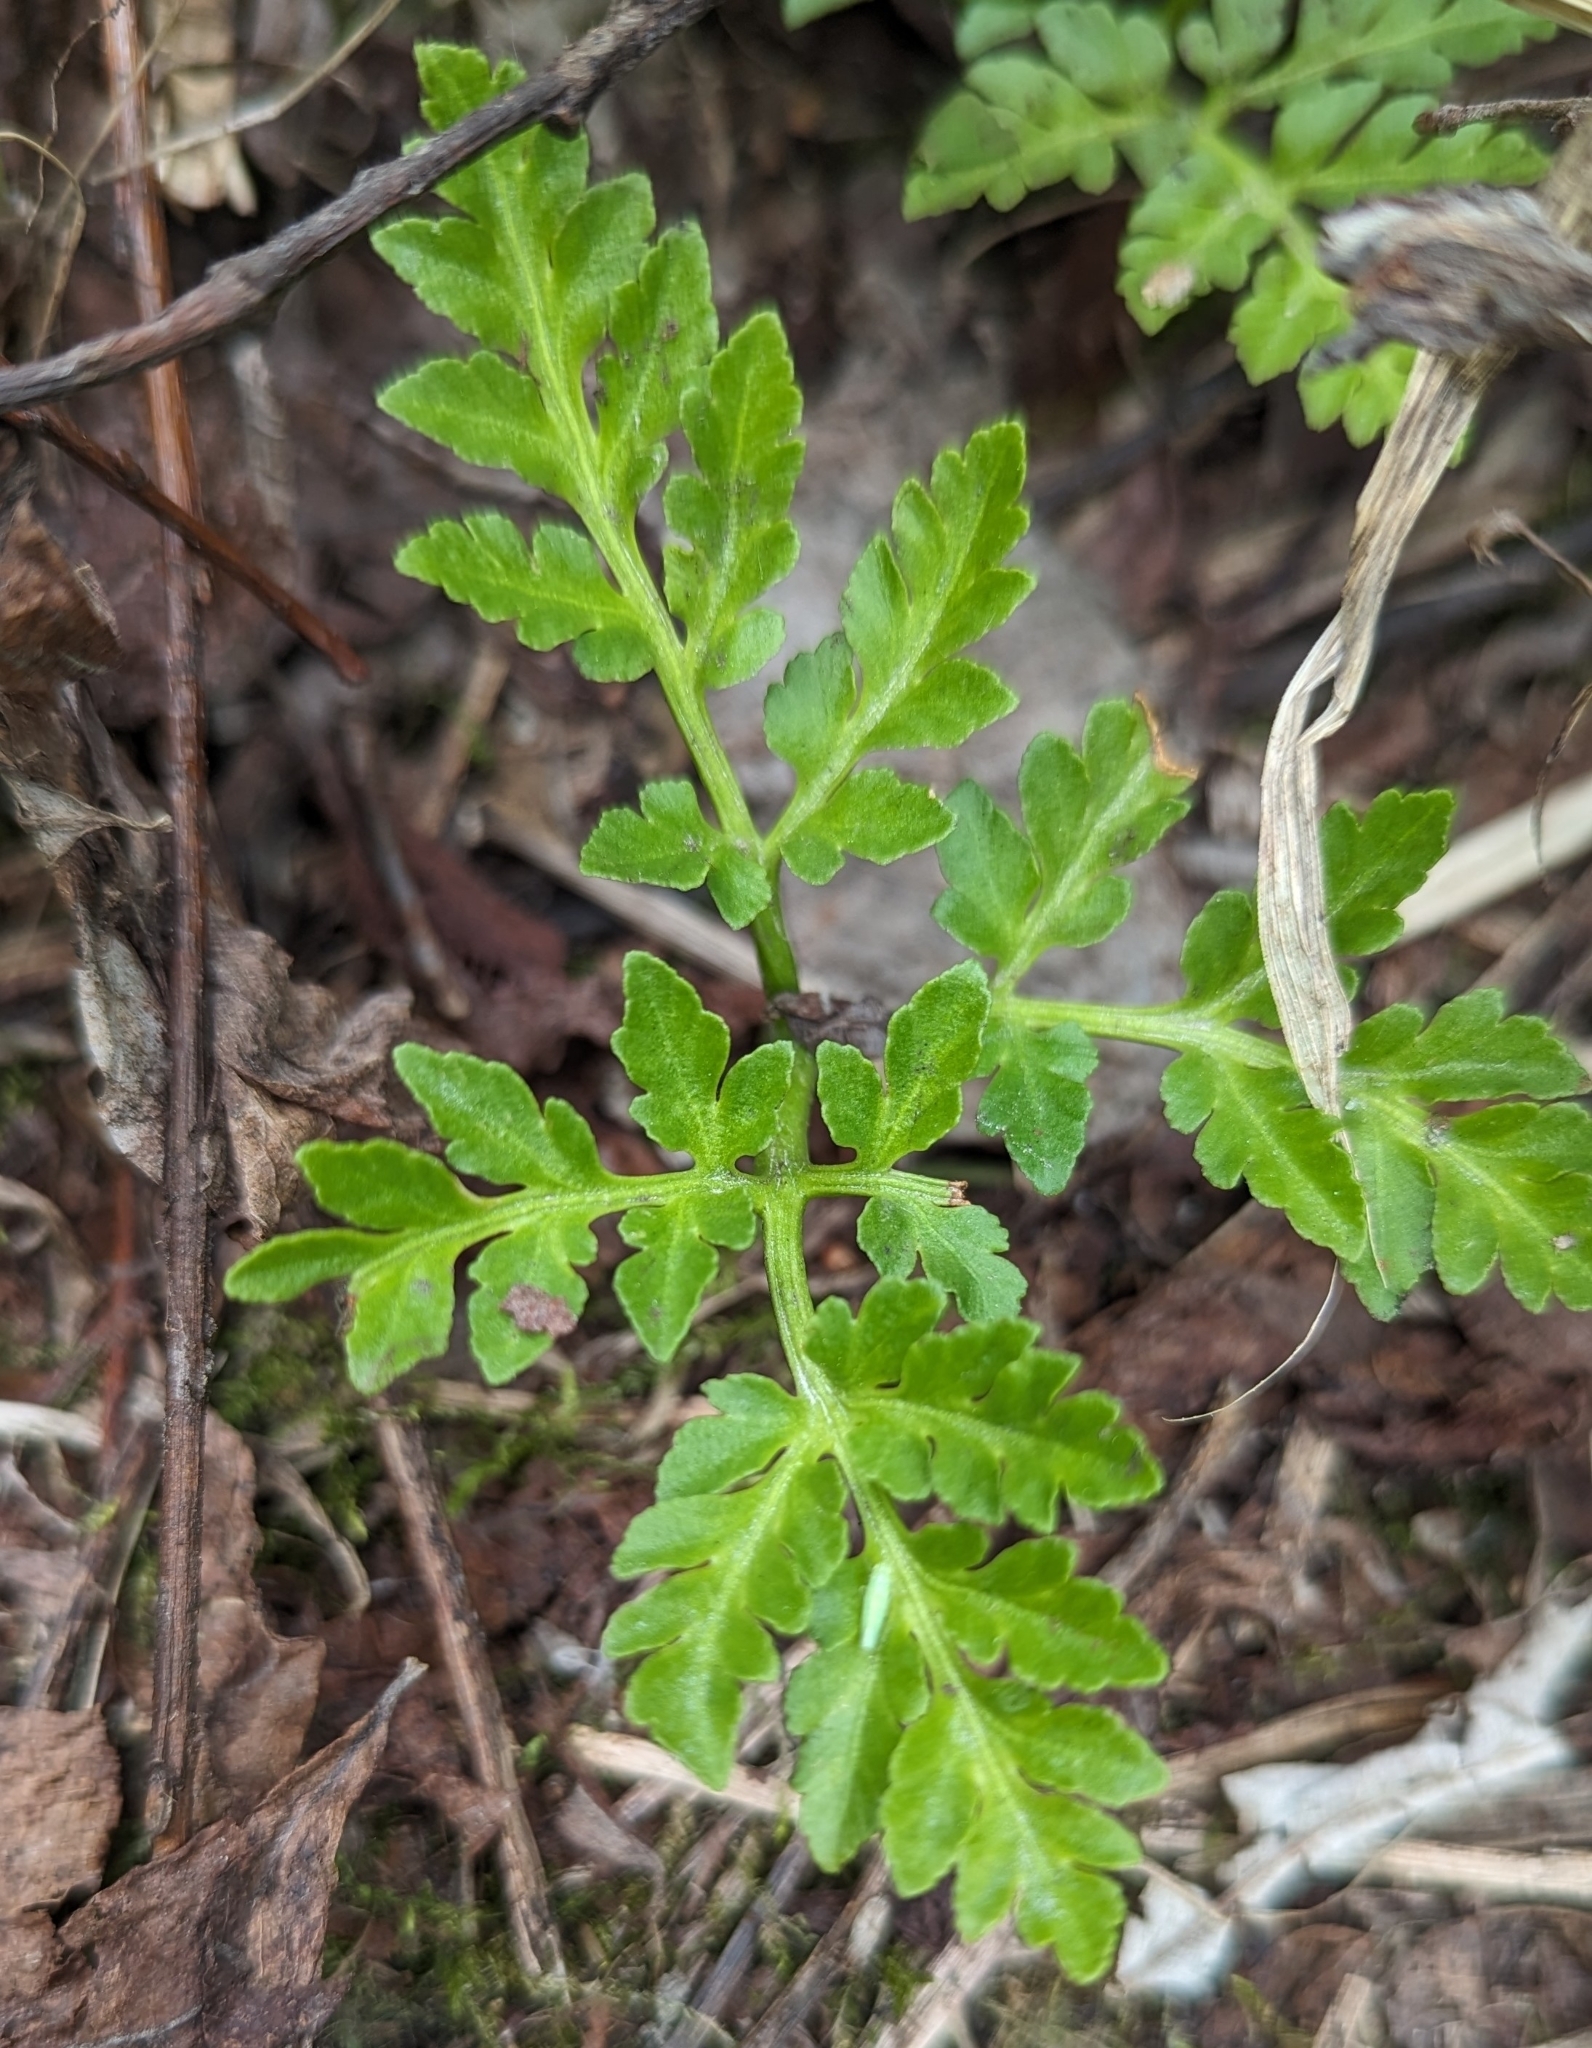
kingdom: Plantae
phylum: Tracheophyta
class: Polypodiopsida
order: Ophioglossales
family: Ophioglossaceae
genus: Sceptridium
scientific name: Sceptridium multifidum
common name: Leathery grape fern
